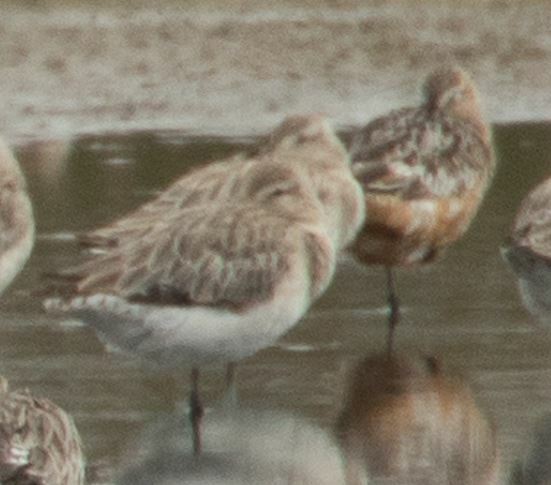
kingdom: Animalia
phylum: Chordata
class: Aves
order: Charadriiformes
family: Scolopacidae
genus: Limosa
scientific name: Limosa lapponica
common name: Bar-tailed godwit
